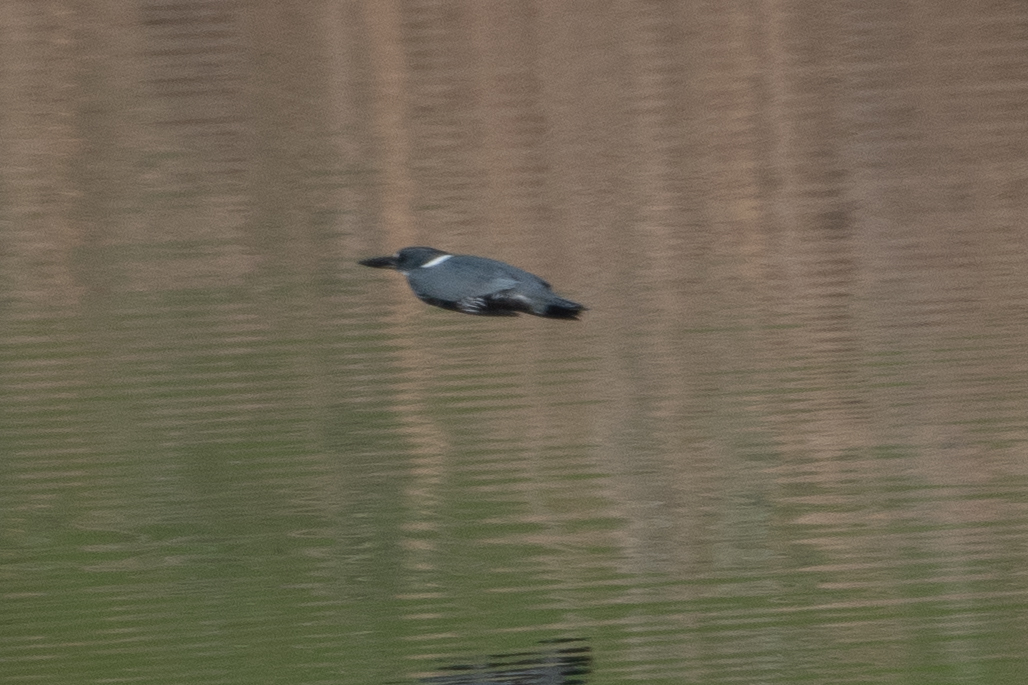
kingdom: Animalia
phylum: Chordata
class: Aves
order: Coraciiformes
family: Alcedinidae
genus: Megaceryle
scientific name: Megaceryle alcyon
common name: Belted kingfisher
